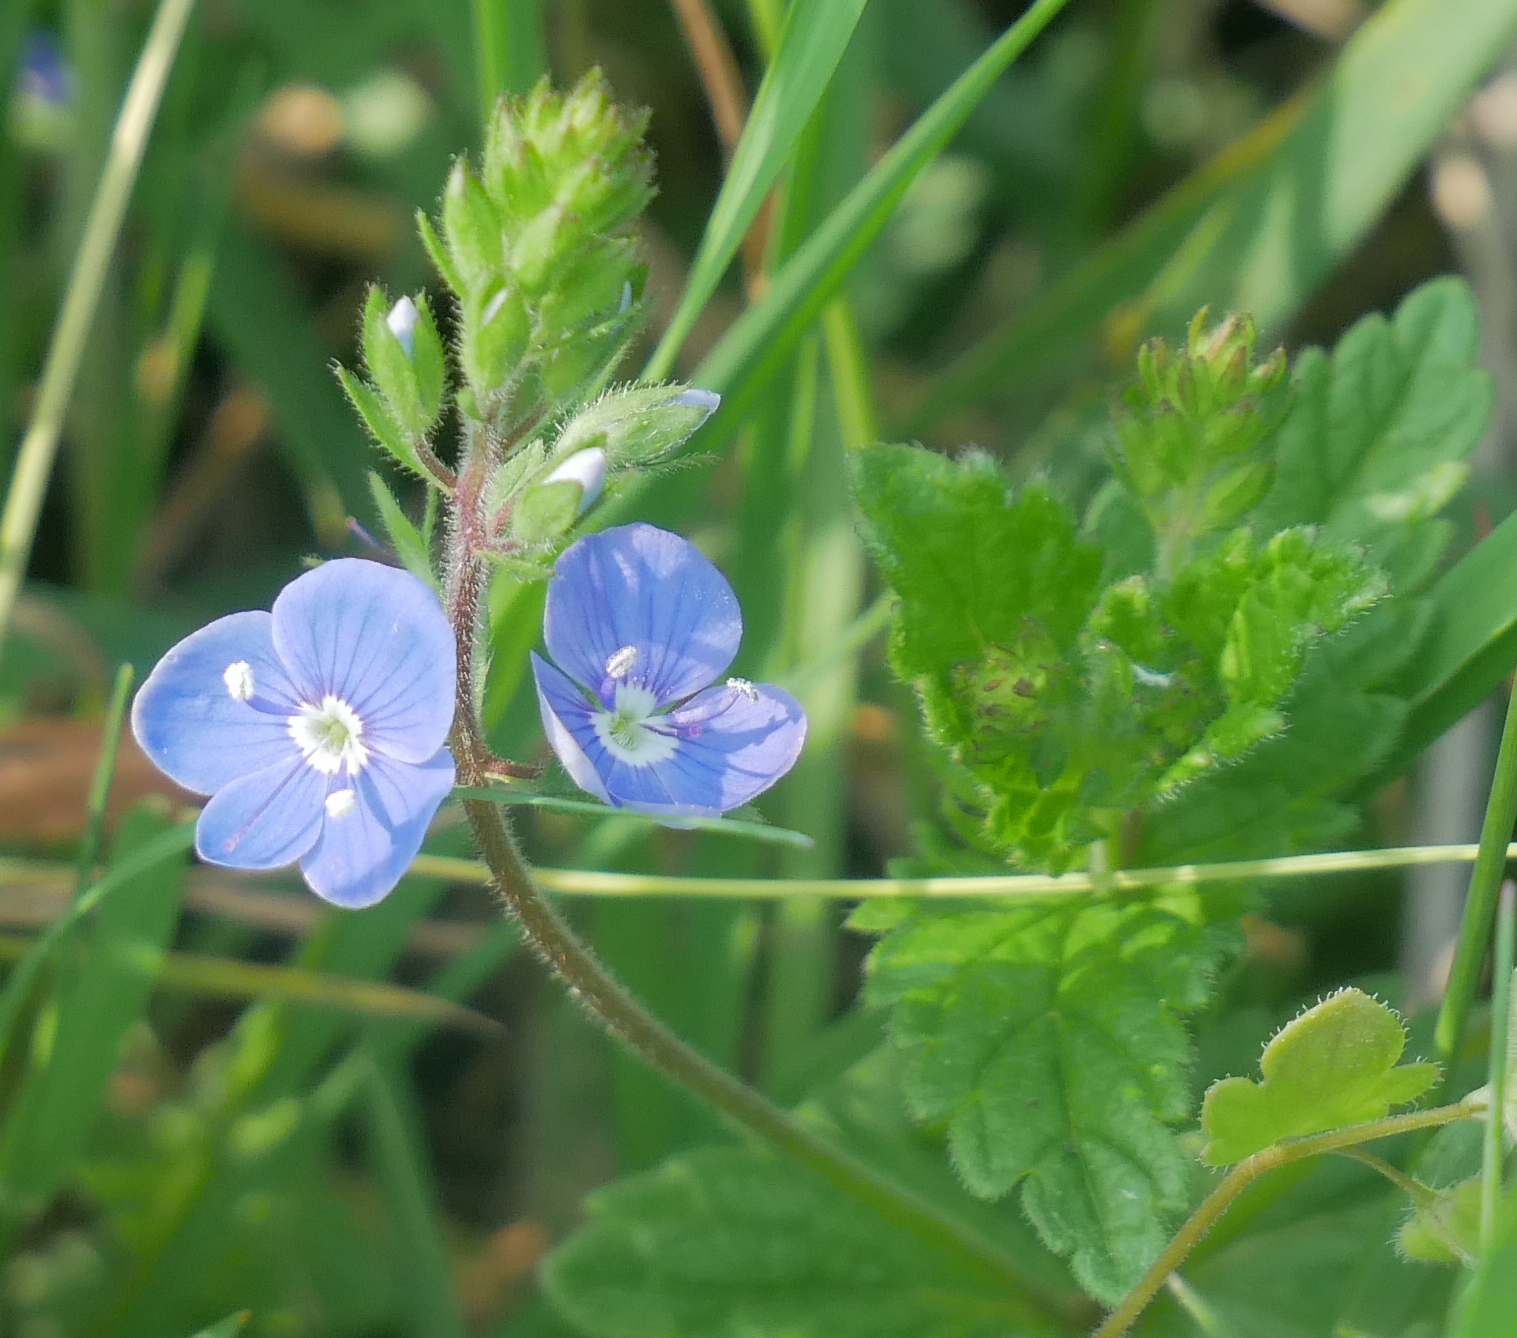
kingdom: Plantae
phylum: Tracheophyta
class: Magnoliopsida
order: Lamiales
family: Plantaginaceae
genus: Veronica
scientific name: Veronica chamaedrys
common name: Germander speedwell
